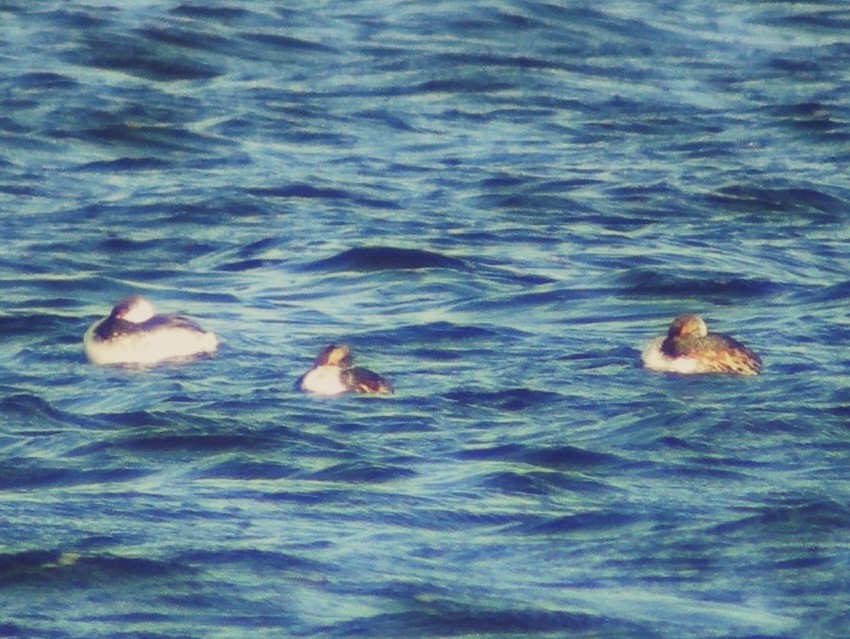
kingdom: Animalia
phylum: Chordata
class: Aves
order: Podicipediformes
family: Podicipedidae
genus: Podiceps
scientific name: Podiceps auritus
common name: Horned grebe
